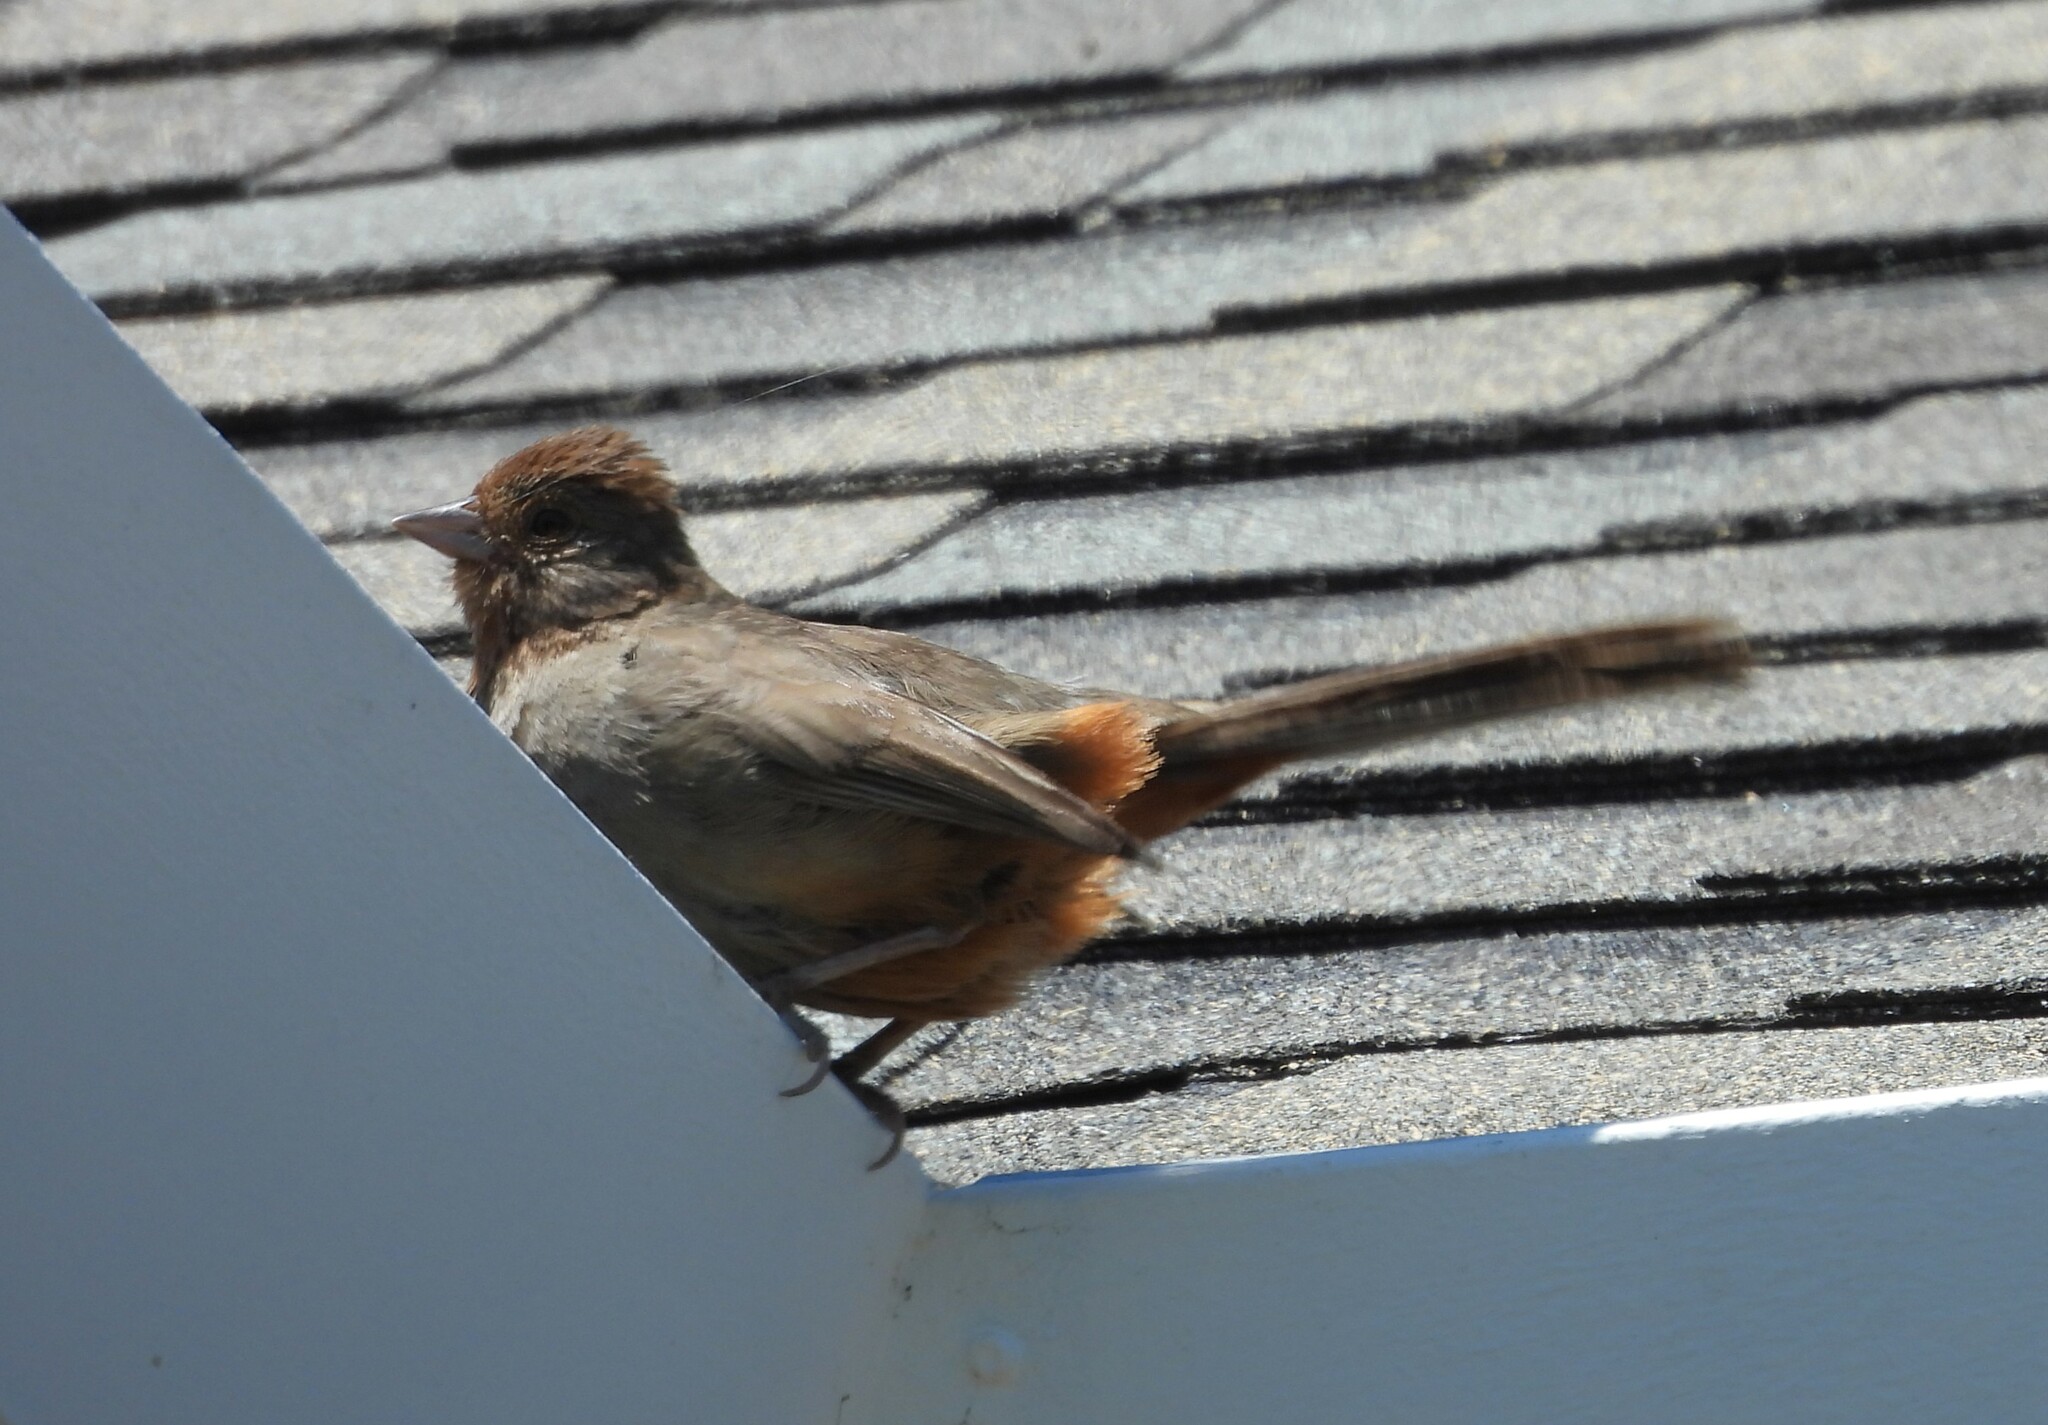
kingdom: Animalia
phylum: Chordata
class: Aves
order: Passeriformes
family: Passerellidae
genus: Melozone
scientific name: Melozone crissalis
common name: California towhee
